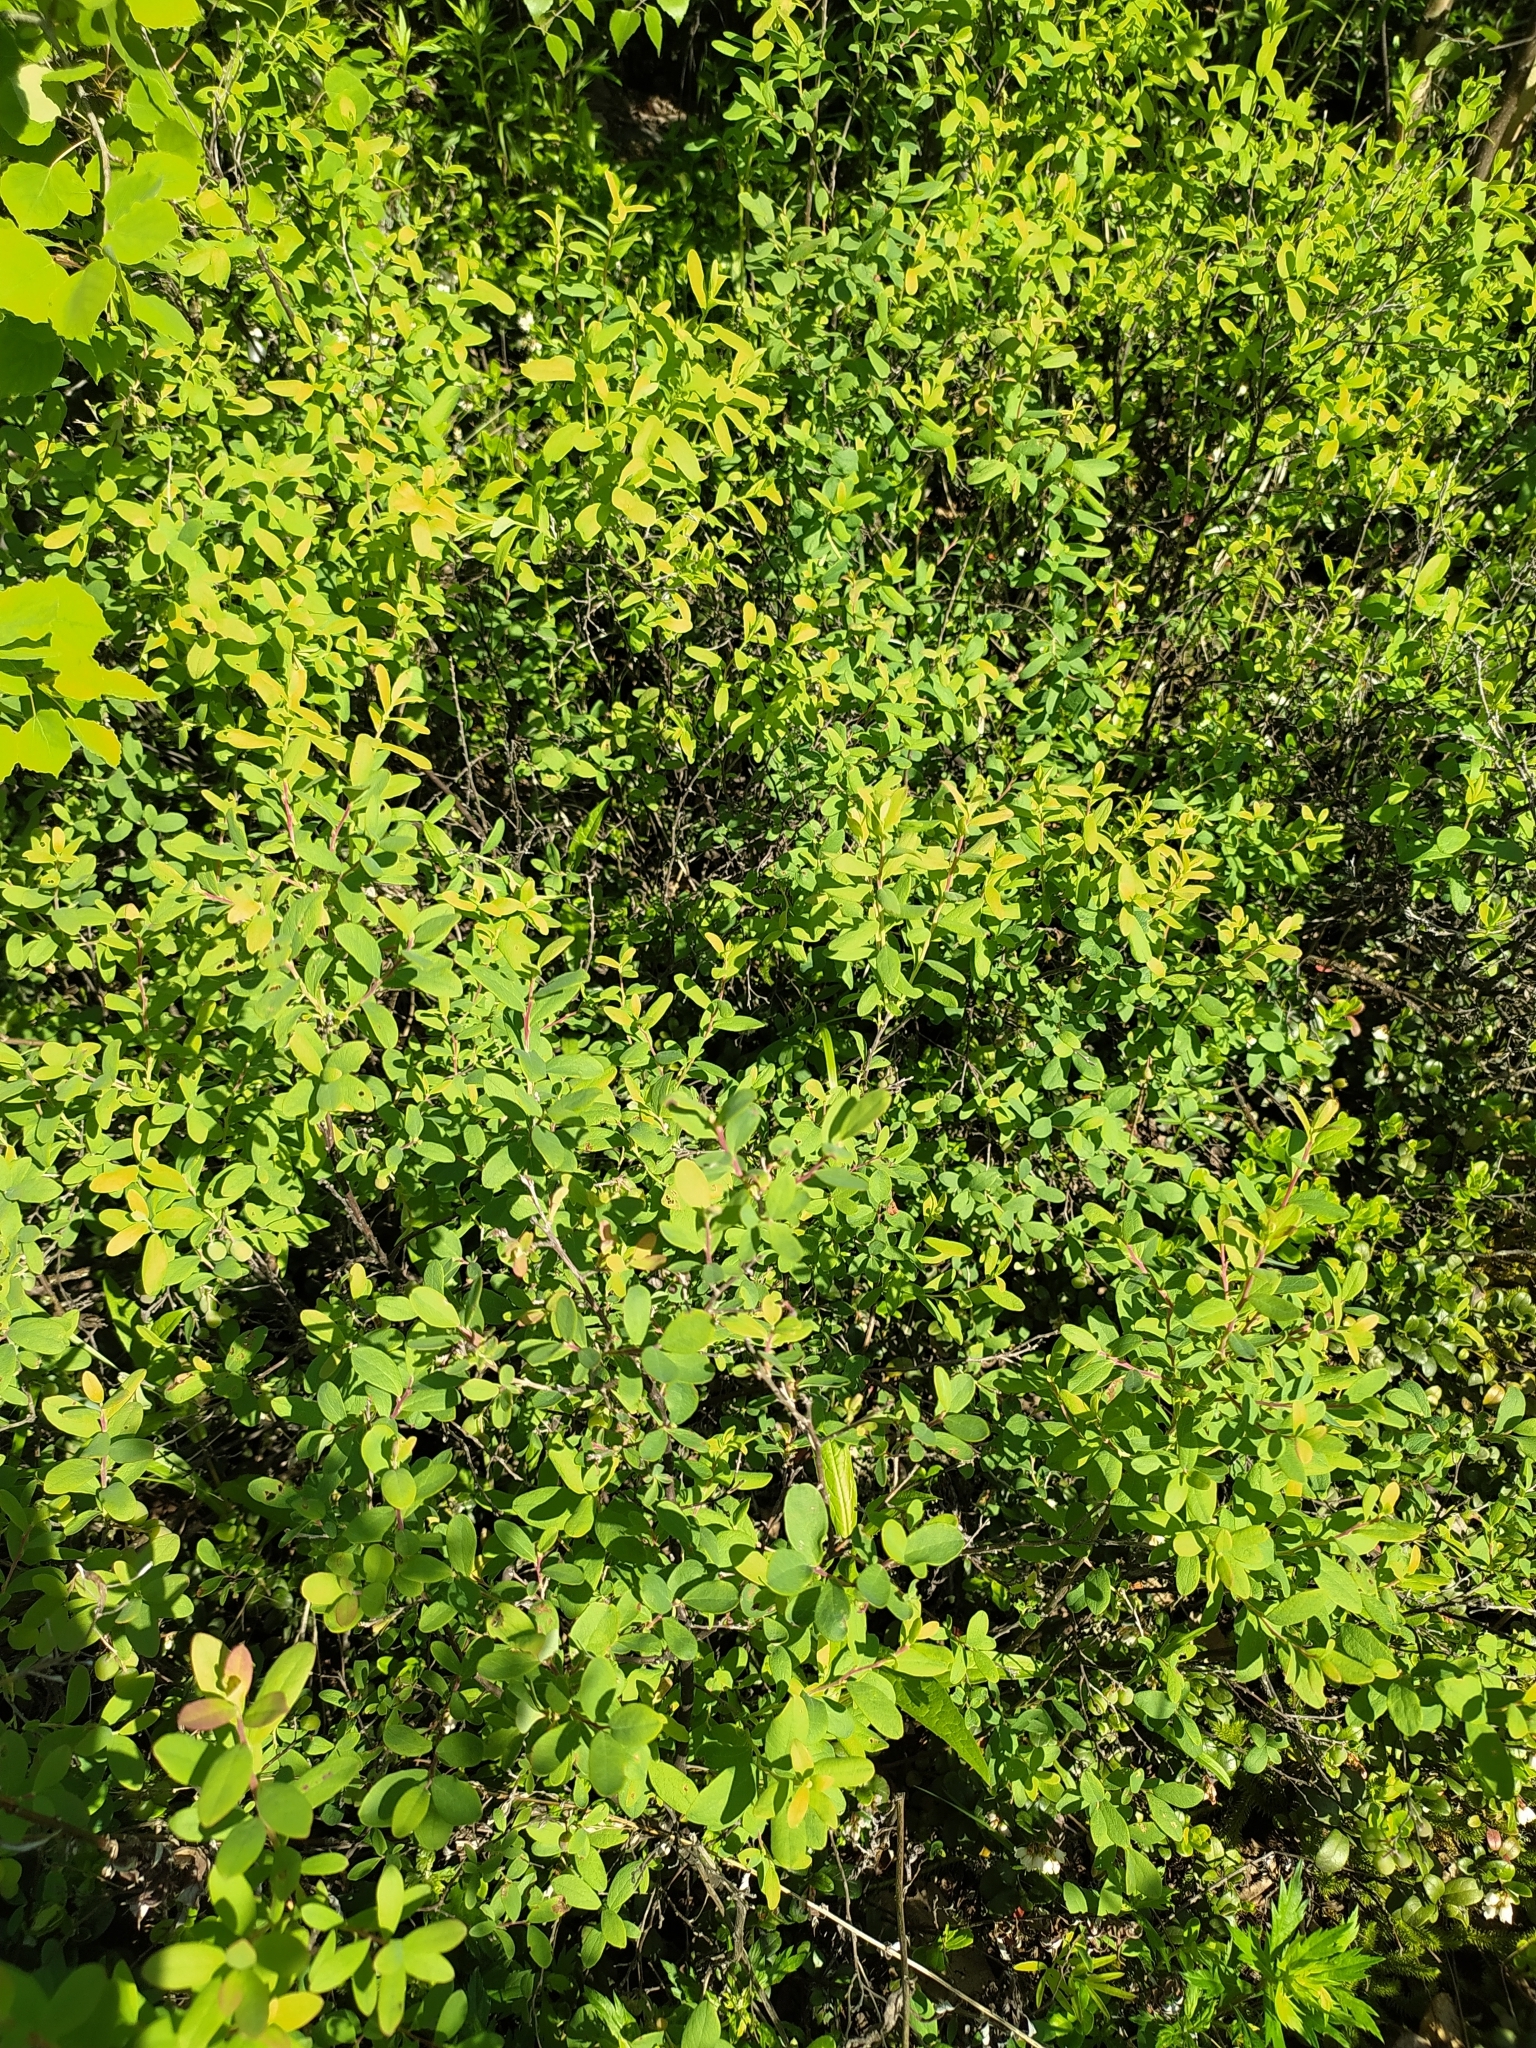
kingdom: Plantae
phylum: Tracheophyta
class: Magnoliopsida
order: Ericales
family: Ericaceae
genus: Vaccinium
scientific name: Vaccinium uliginosum
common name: Bog bilberry
